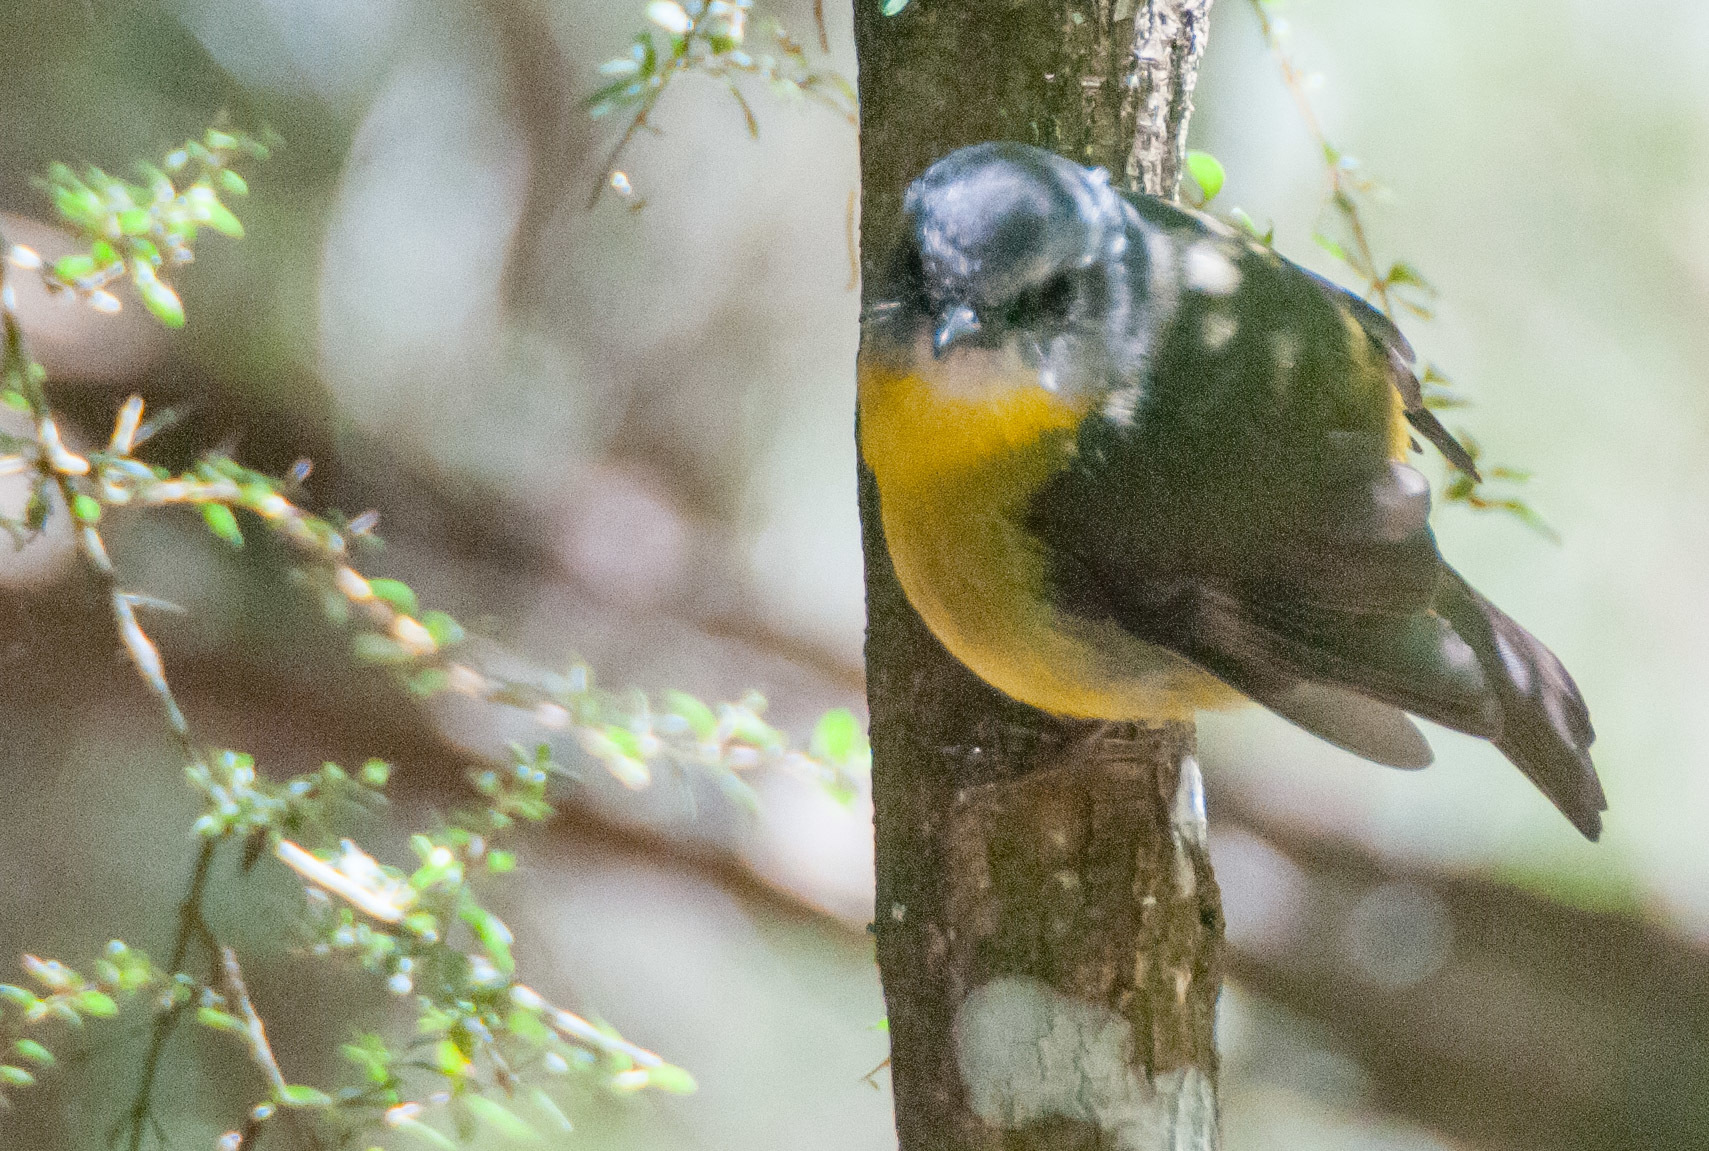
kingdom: Animalia
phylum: Chordata
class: Aves
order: Passeriformes
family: Petroicidae
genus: Eopsaltria
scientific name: Eopsaltria australis
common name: Eastern yellow robin
